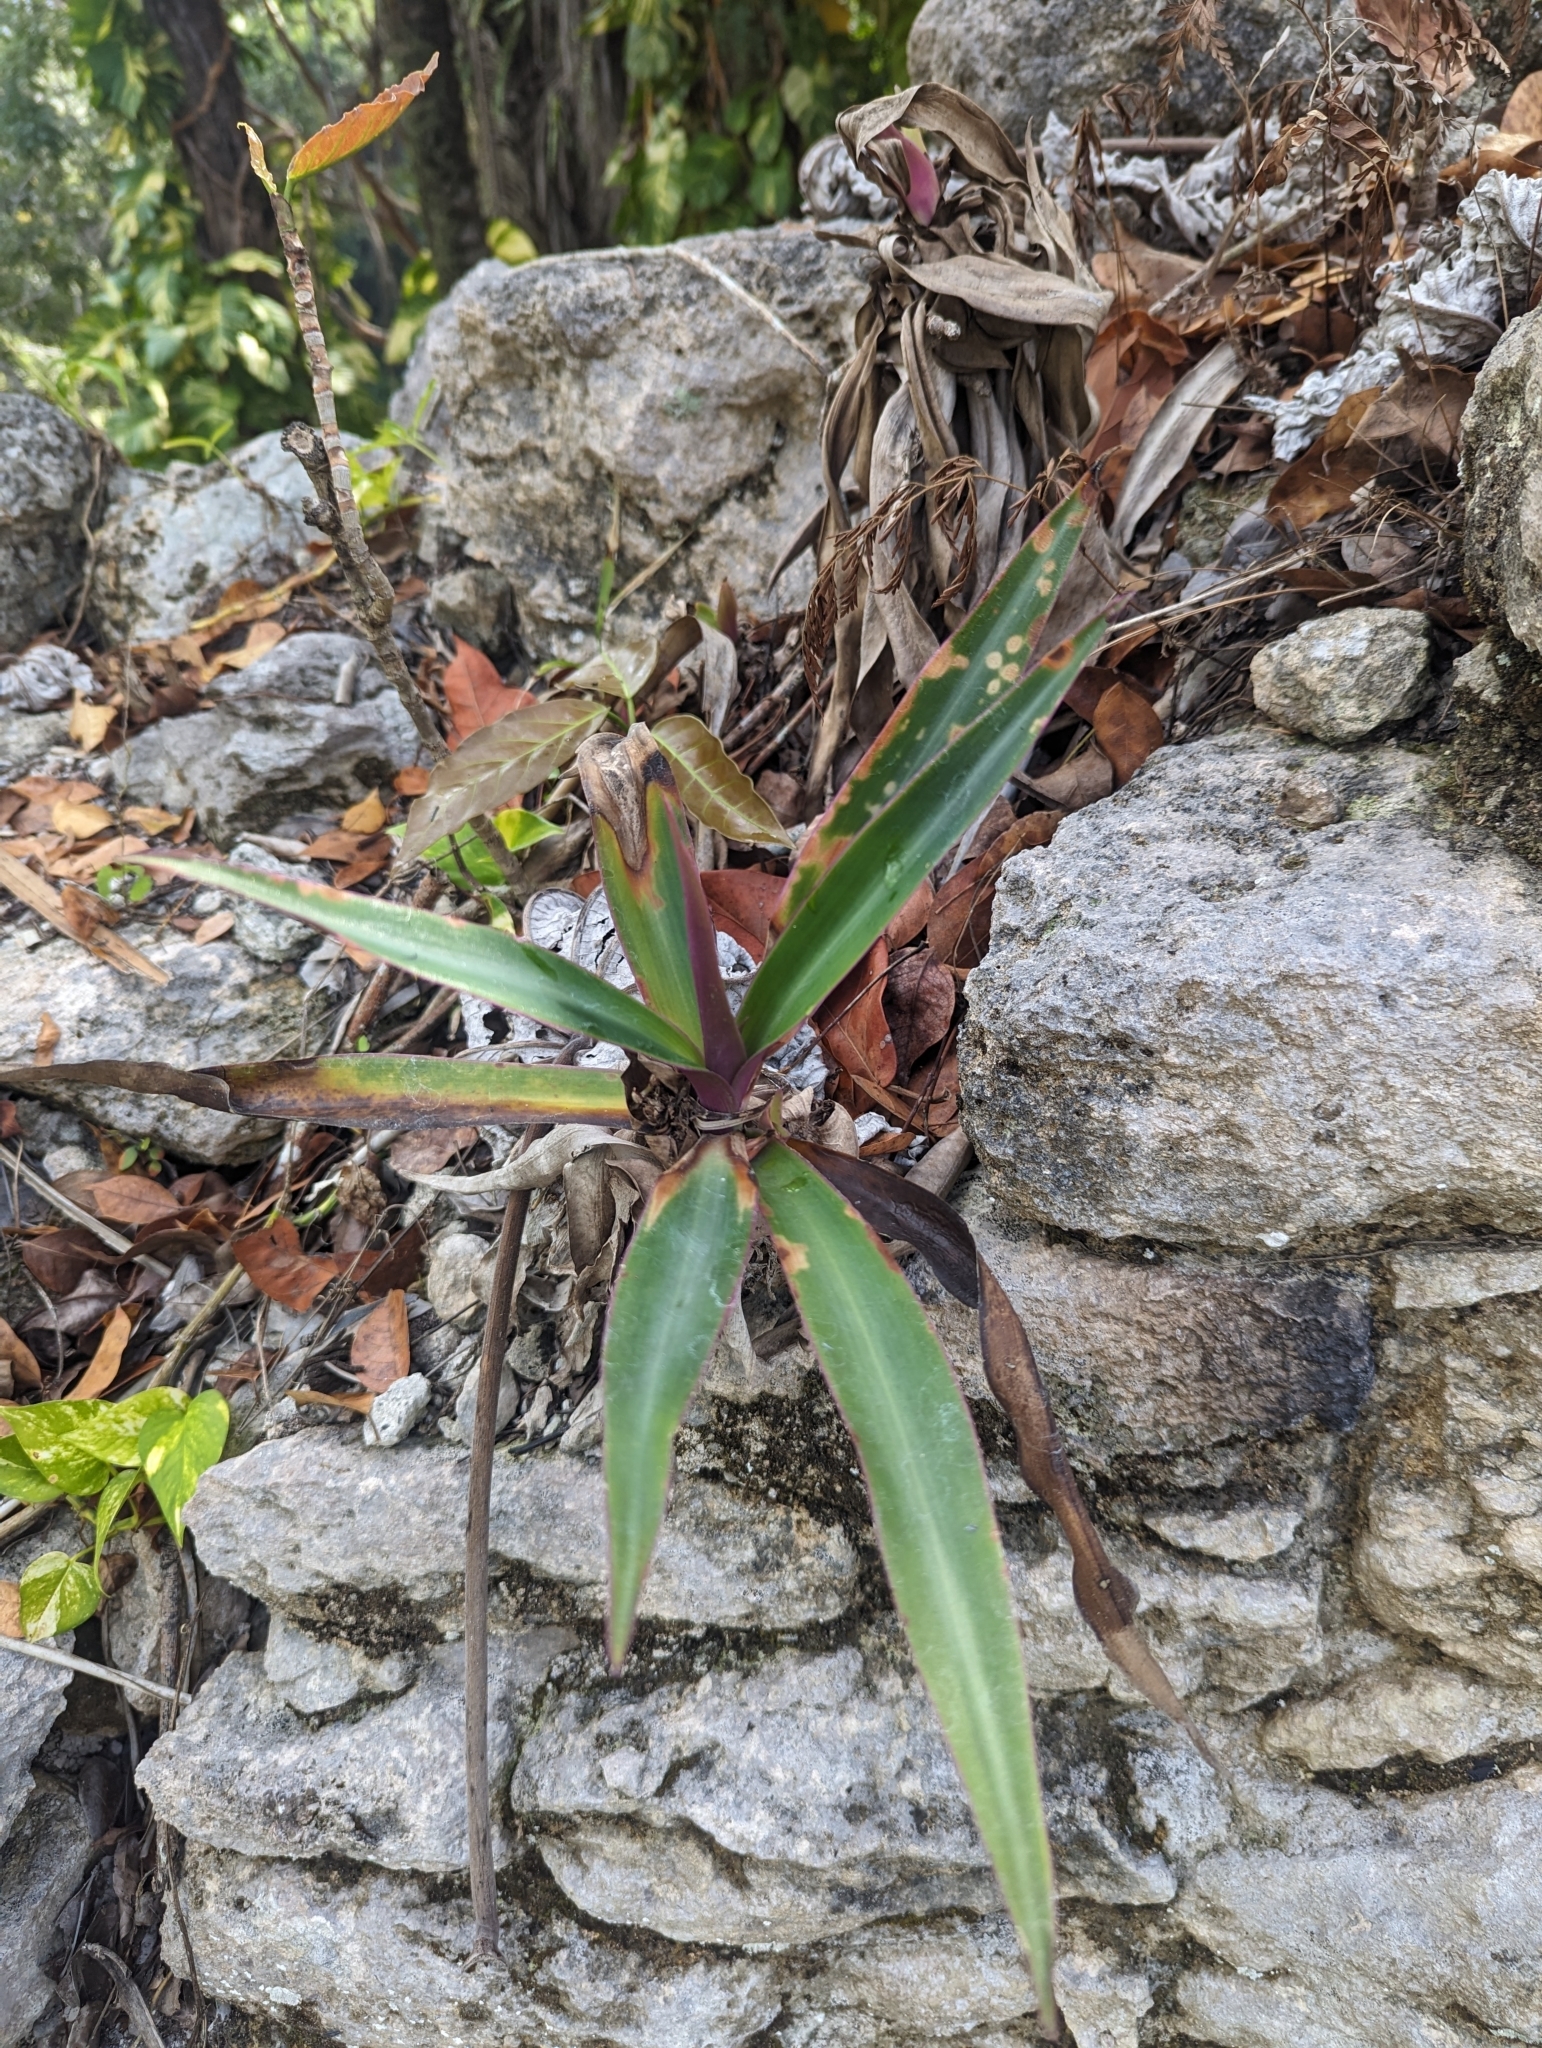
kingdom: Plantae
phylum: Tracheophyta
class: Liliopsida
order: Commelinales
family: Commelinaceae
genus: Tradescantia
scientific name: Tradescantia spathacea
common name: Boatlily
